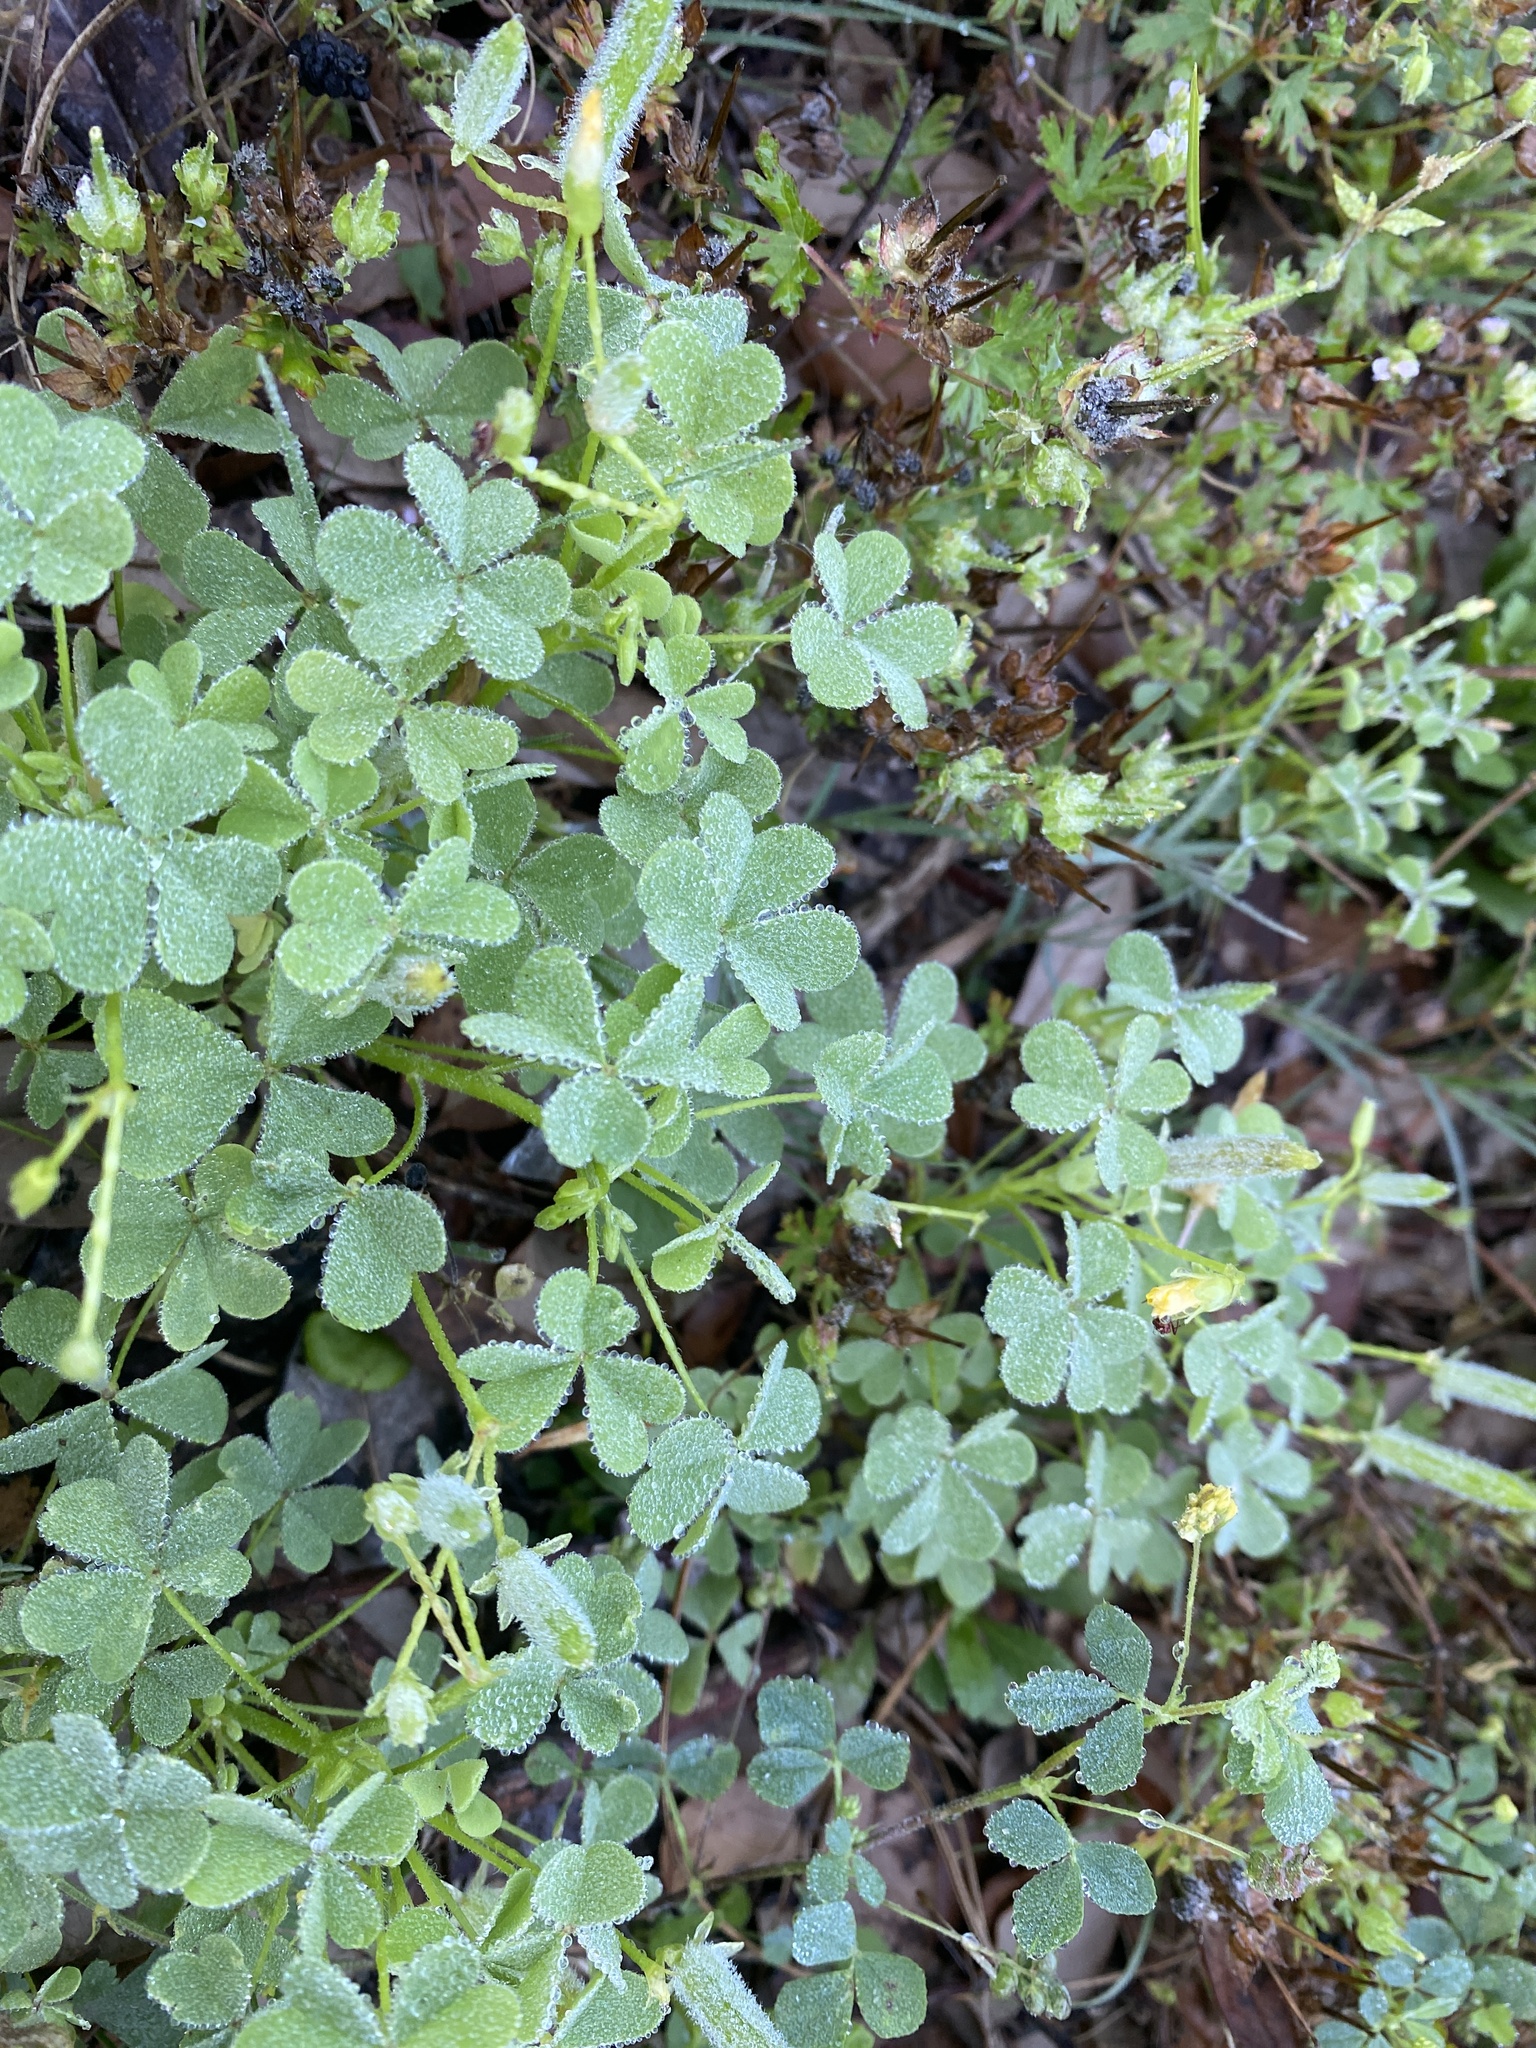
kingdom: Plantae
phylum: Tracheophyta
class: Magnoliopsida
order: Oxalidales
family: Oxalidaceae
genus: Oxalis
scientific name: Oxalis dillenii
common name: Sussex yellow-sorrel
